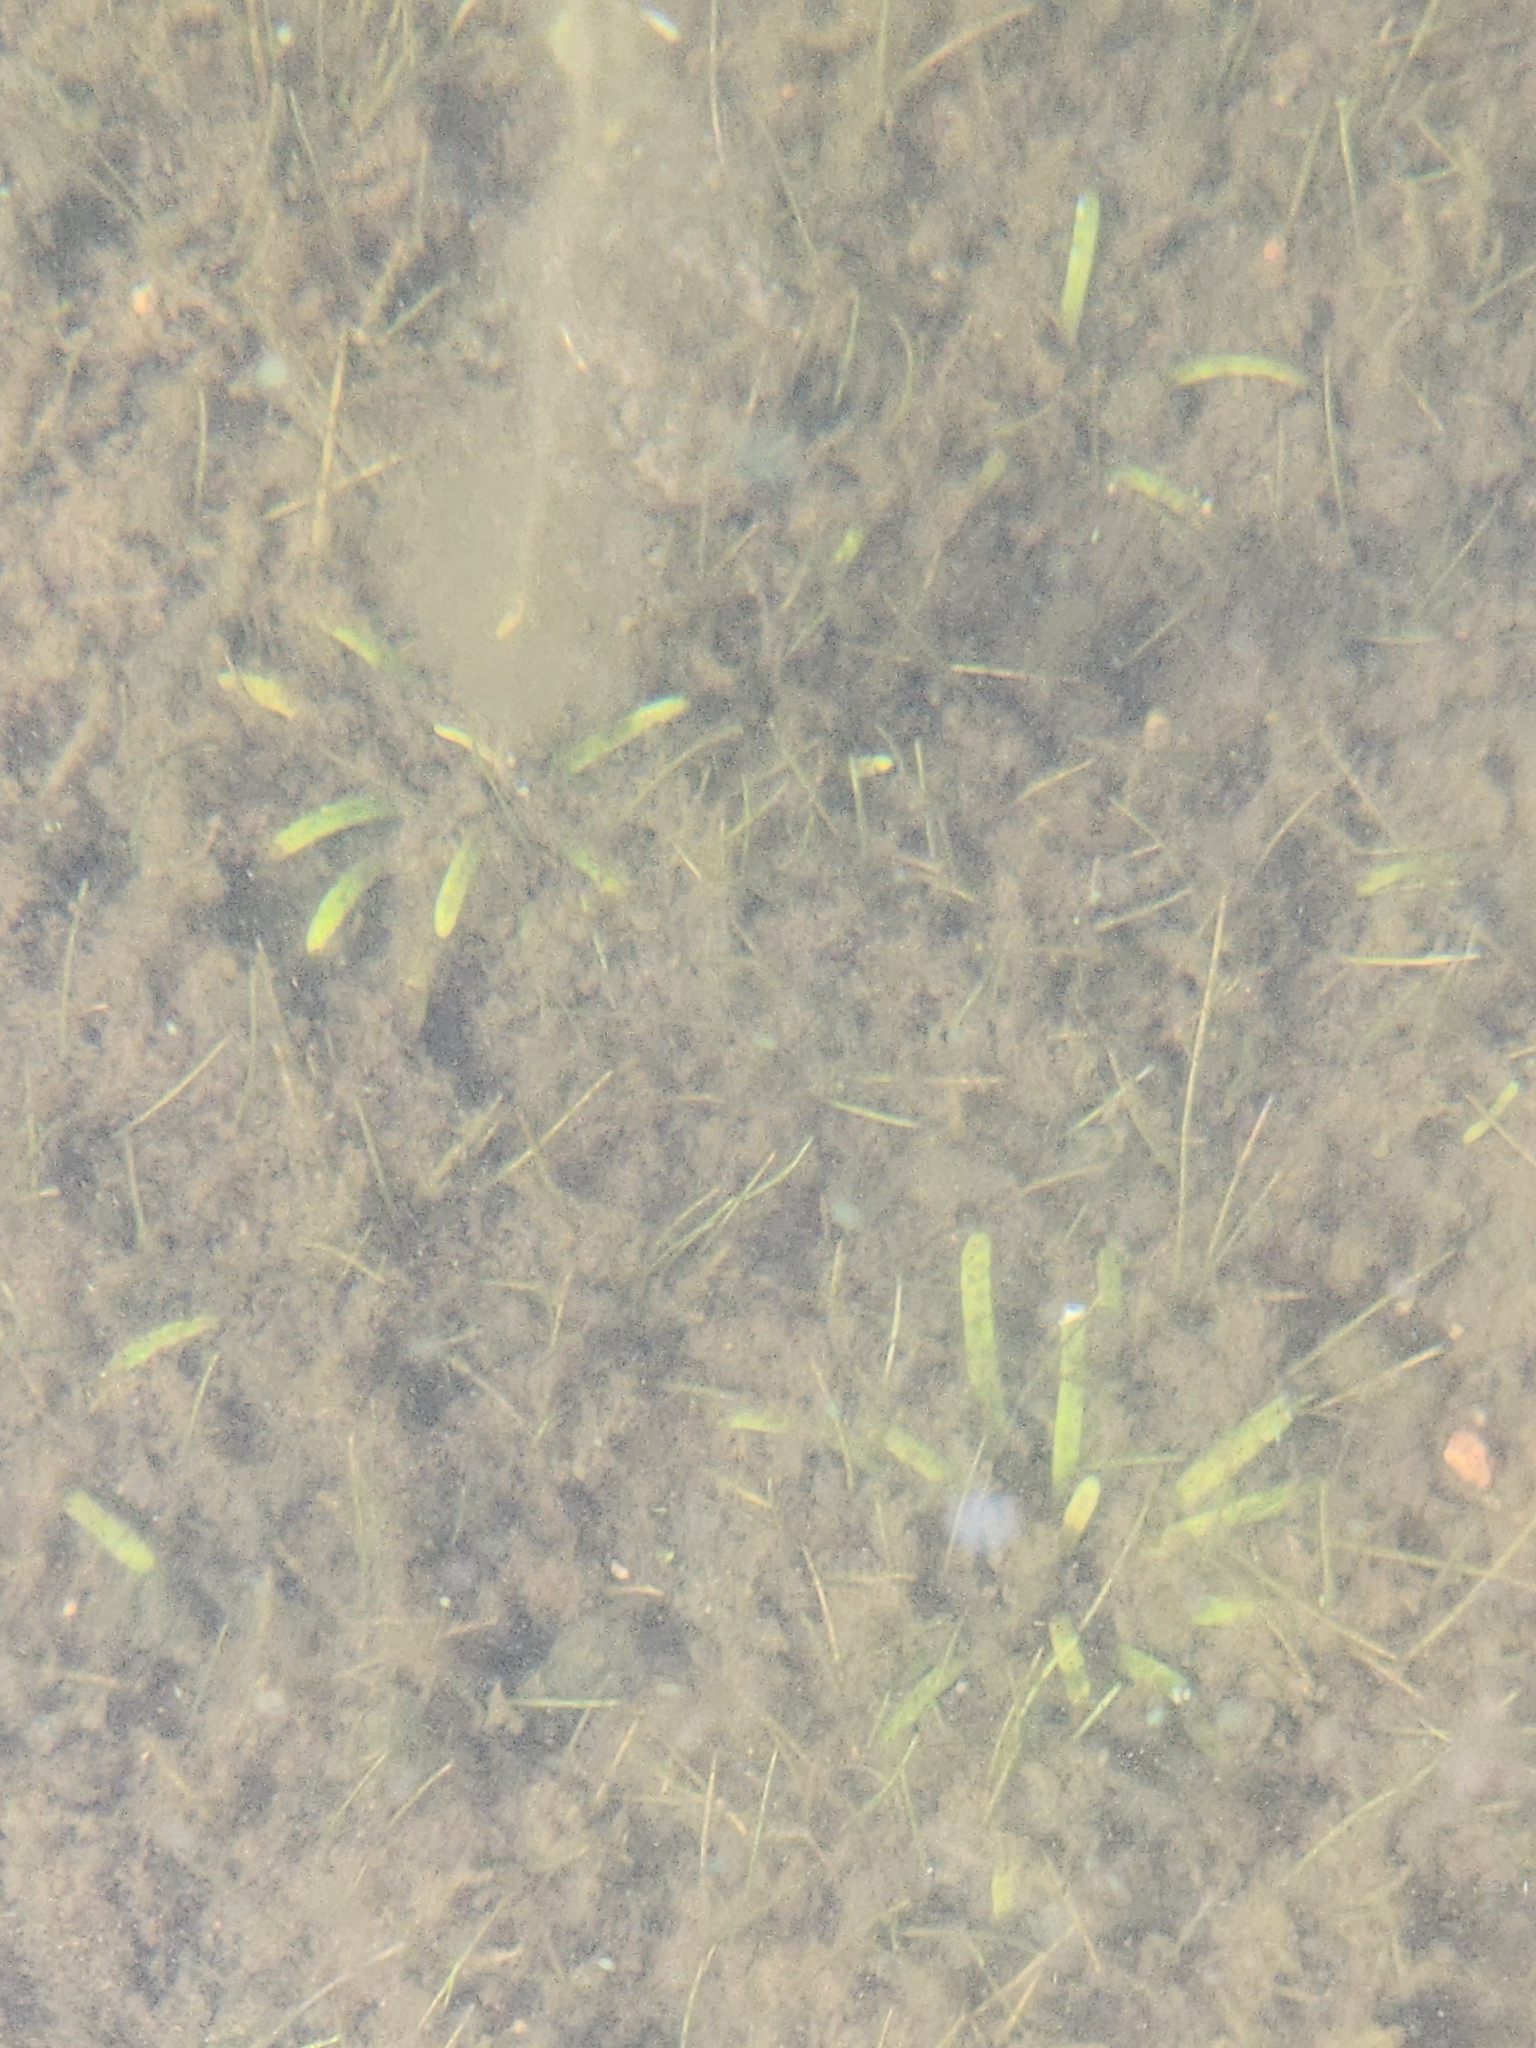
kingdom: Plantae
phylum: Tracheophyta
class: Magnoliopsida
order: Asterales
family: Campanulaceae
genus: Lobelia
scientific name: Lobelia dortmanna
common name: Water lobelia
